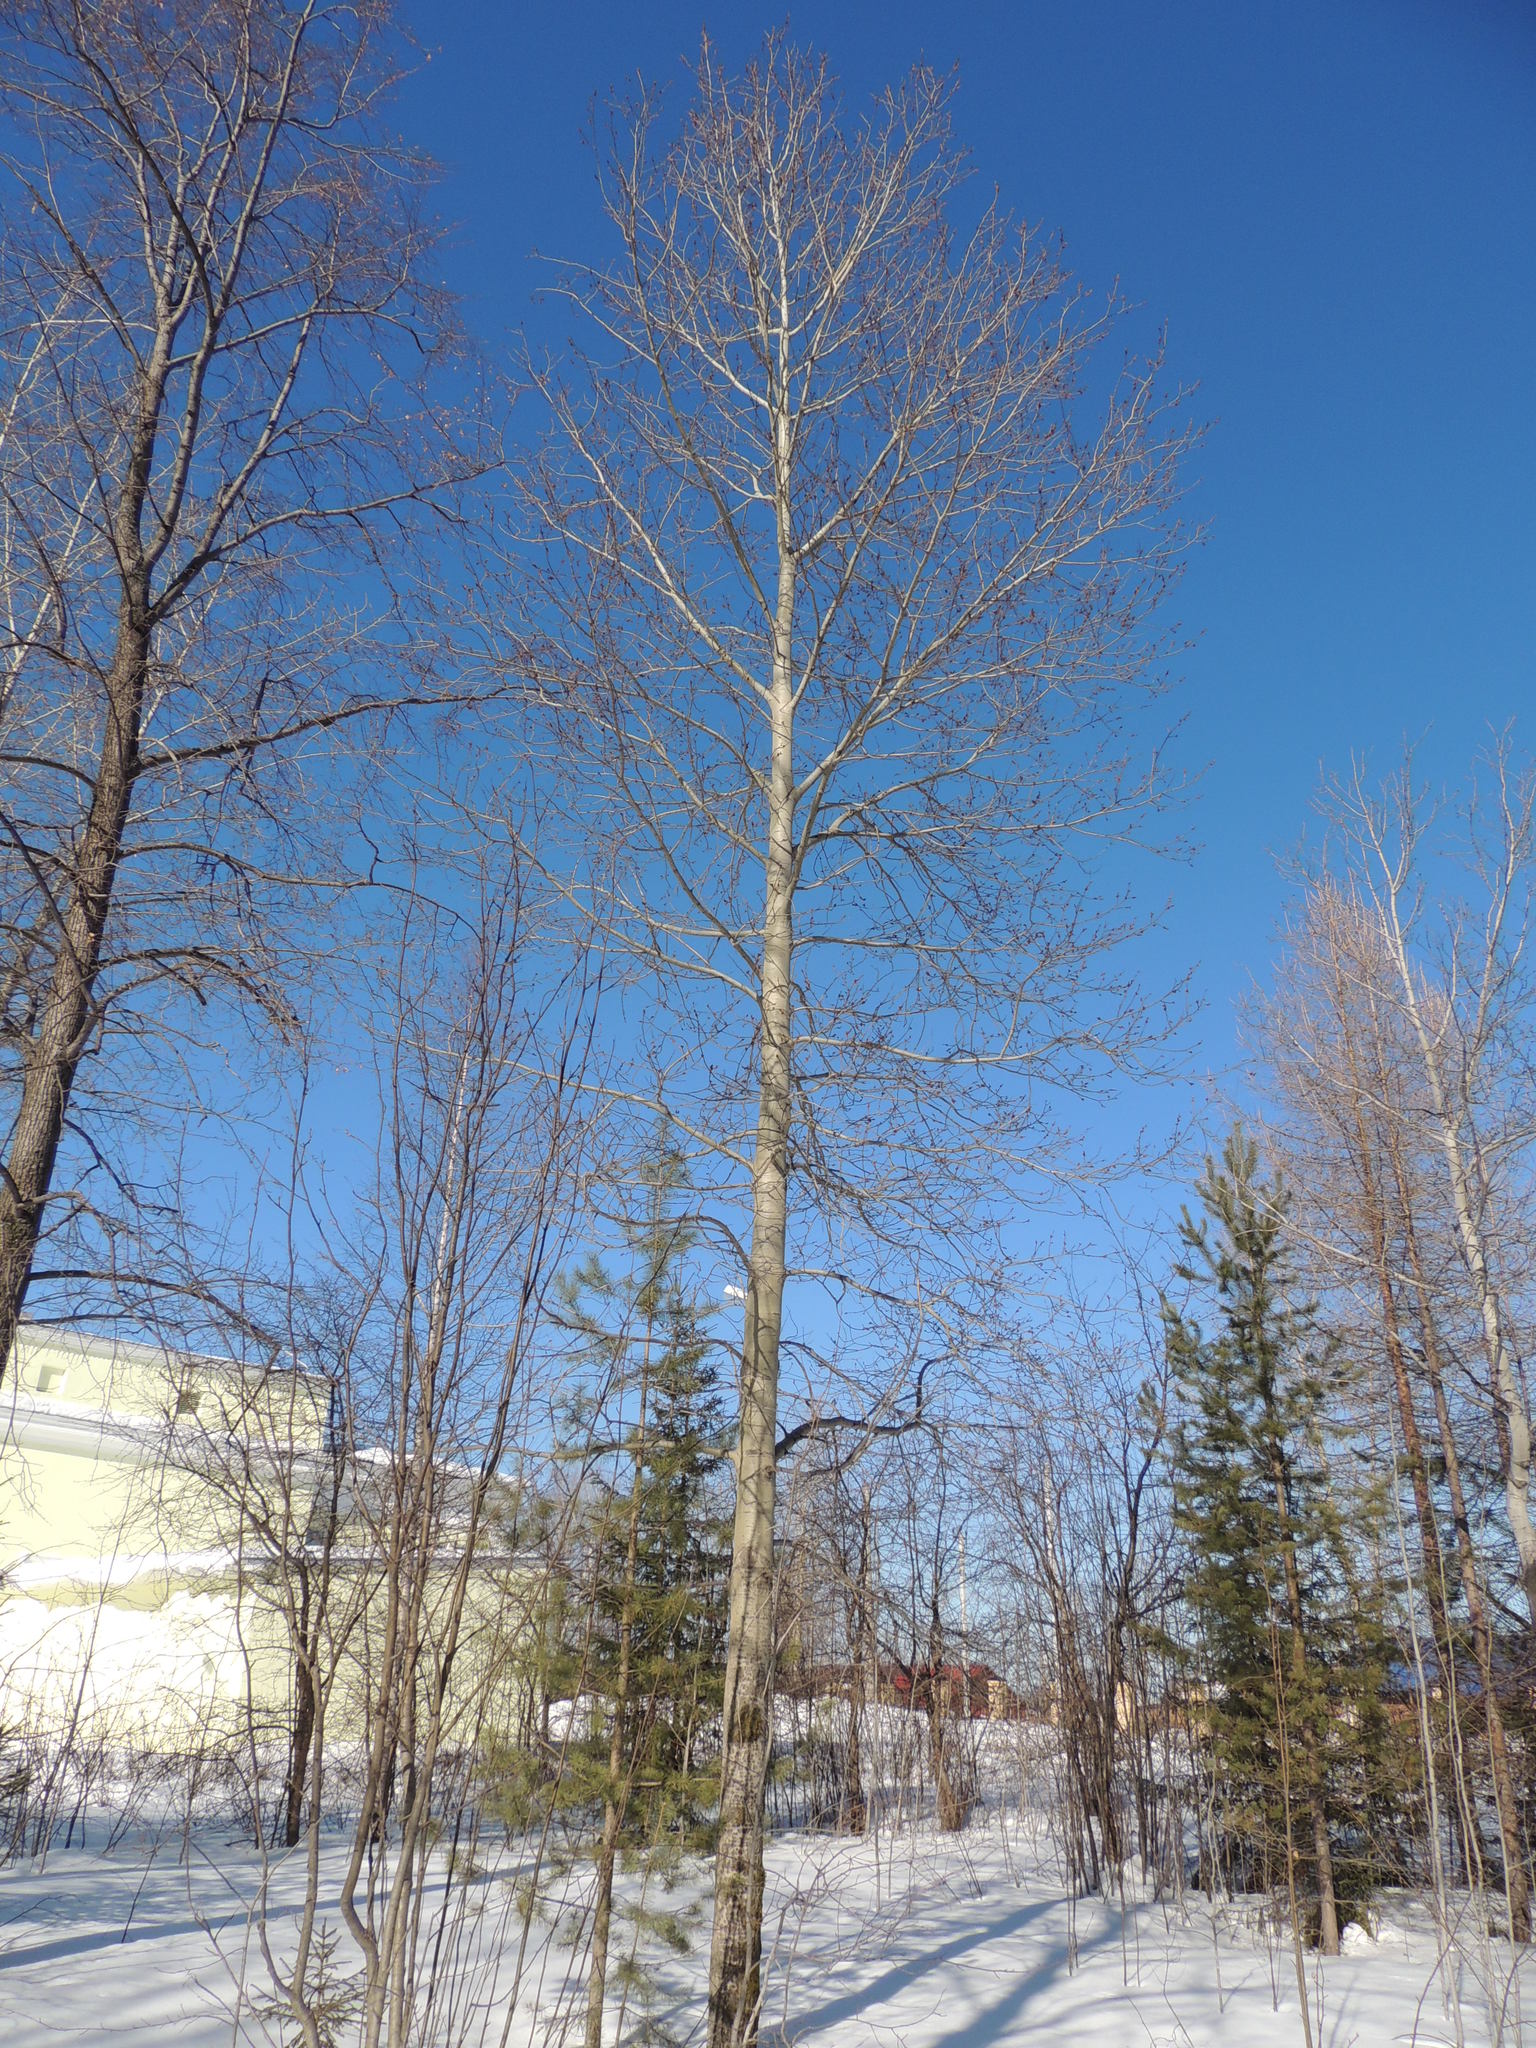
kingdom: Plantae
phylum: Tracheophyta
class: Magnoliopsida
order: Malpighiales
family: Salicaceae
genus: Populus
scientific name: Populus tremula
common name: European aspen
